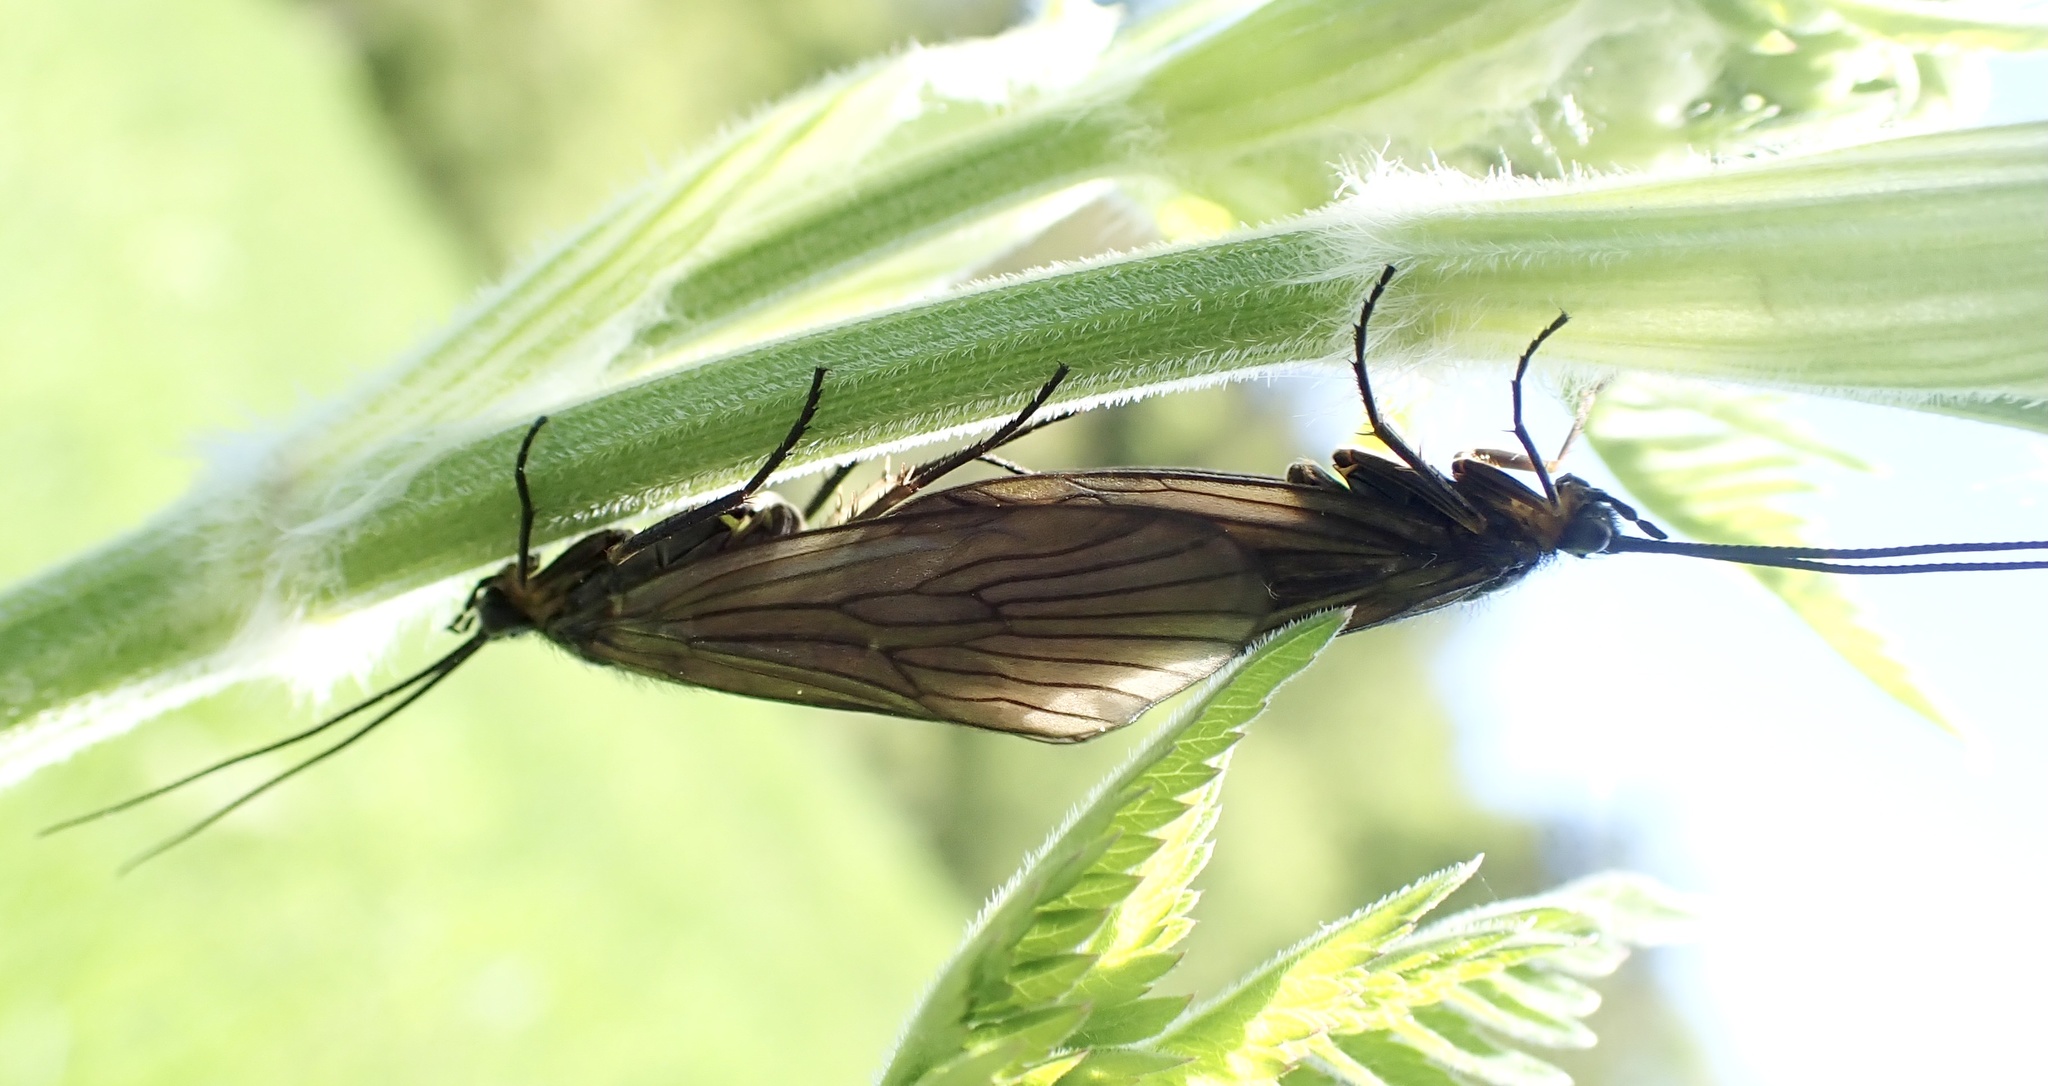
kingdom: Animalia
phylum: Arthropoda
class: Insecta
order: Trichoptera
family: Phryganeidae
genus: Oligotricha
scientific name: Oligotricha striata
